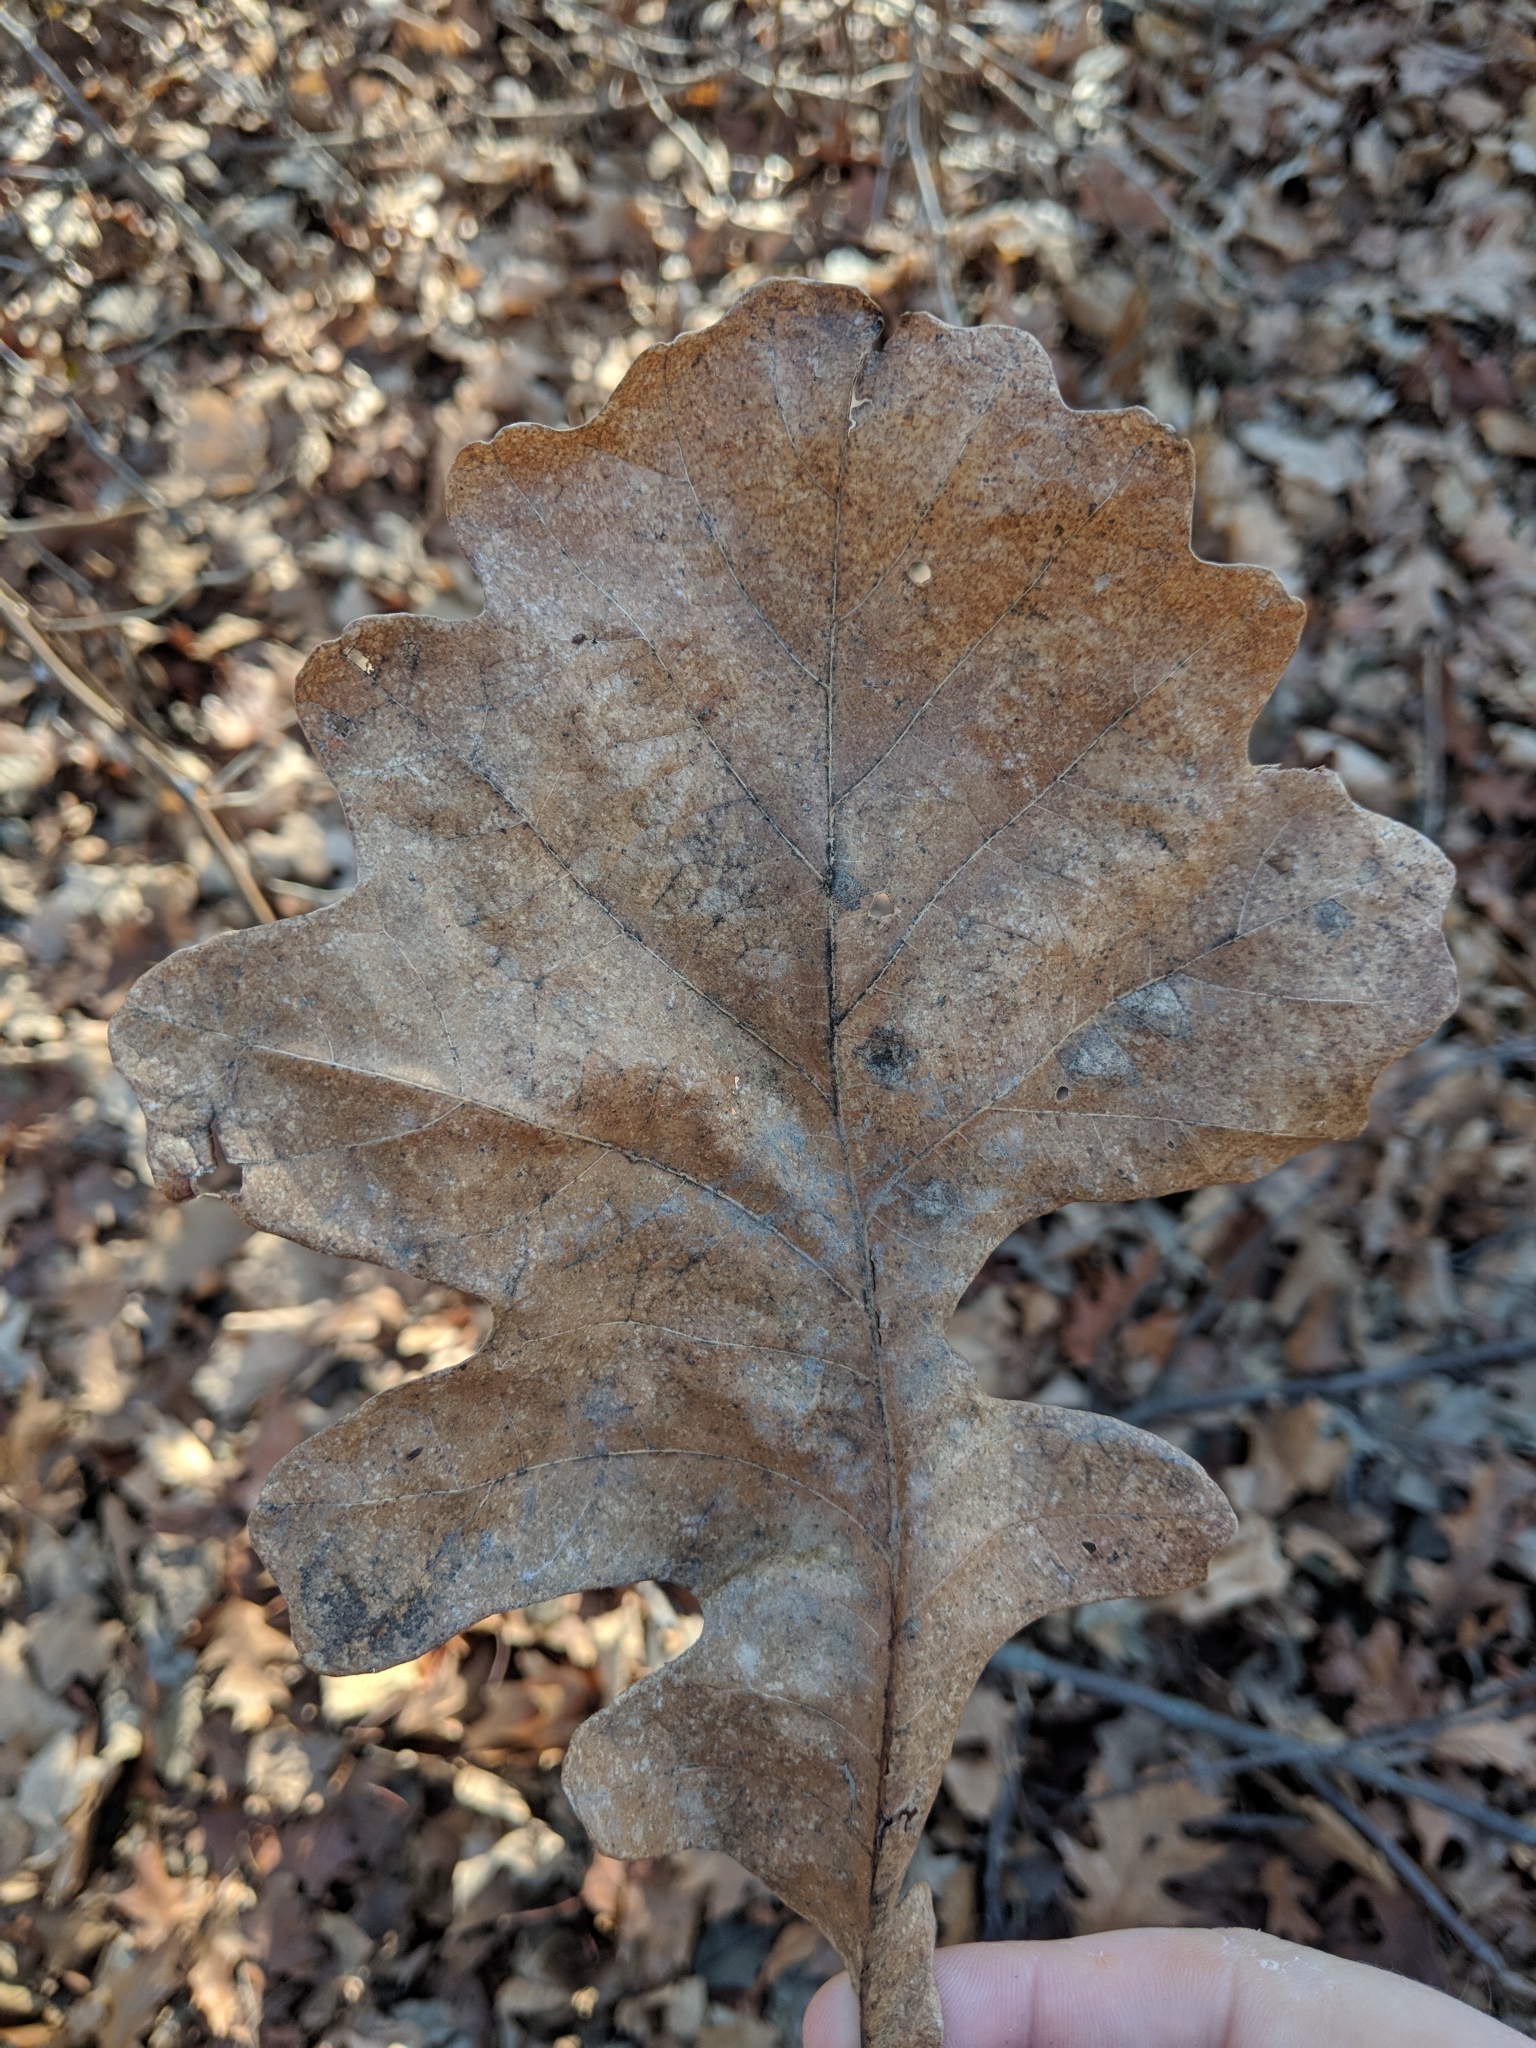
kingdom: Plantae
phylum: Tracheophyta
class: Magnoliopsida
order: Fagales
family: Fagaceae
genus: Quercus
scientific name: Quercus macrocarpa
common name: Bur oak
